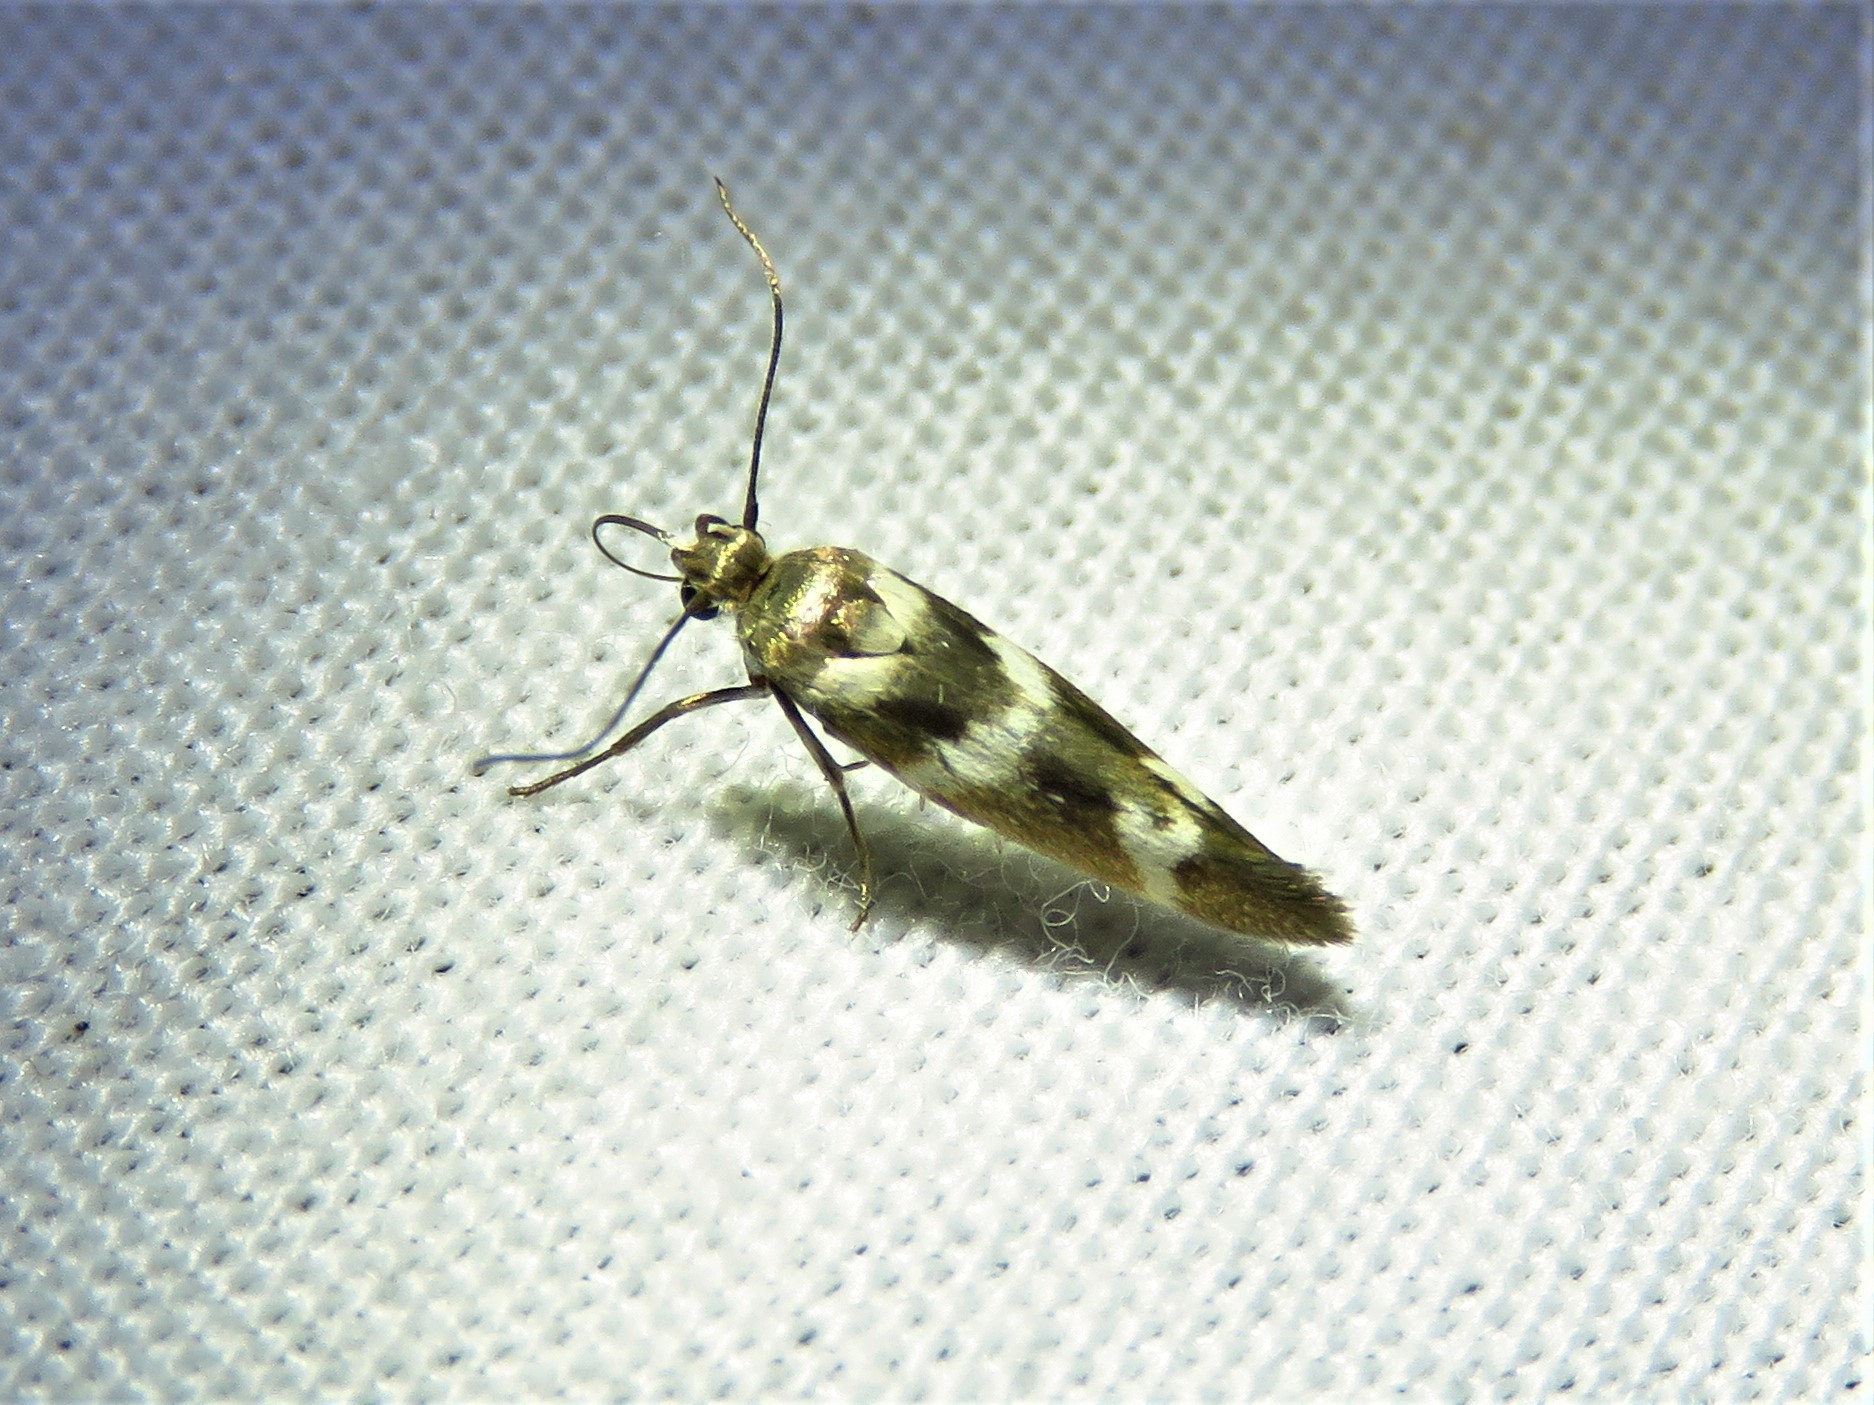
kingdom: Animalia
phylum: Arthropoda
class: Insecta
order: Lepidoptera
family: Scythrididae
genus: Scythris
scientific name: Scythris trivinctella
